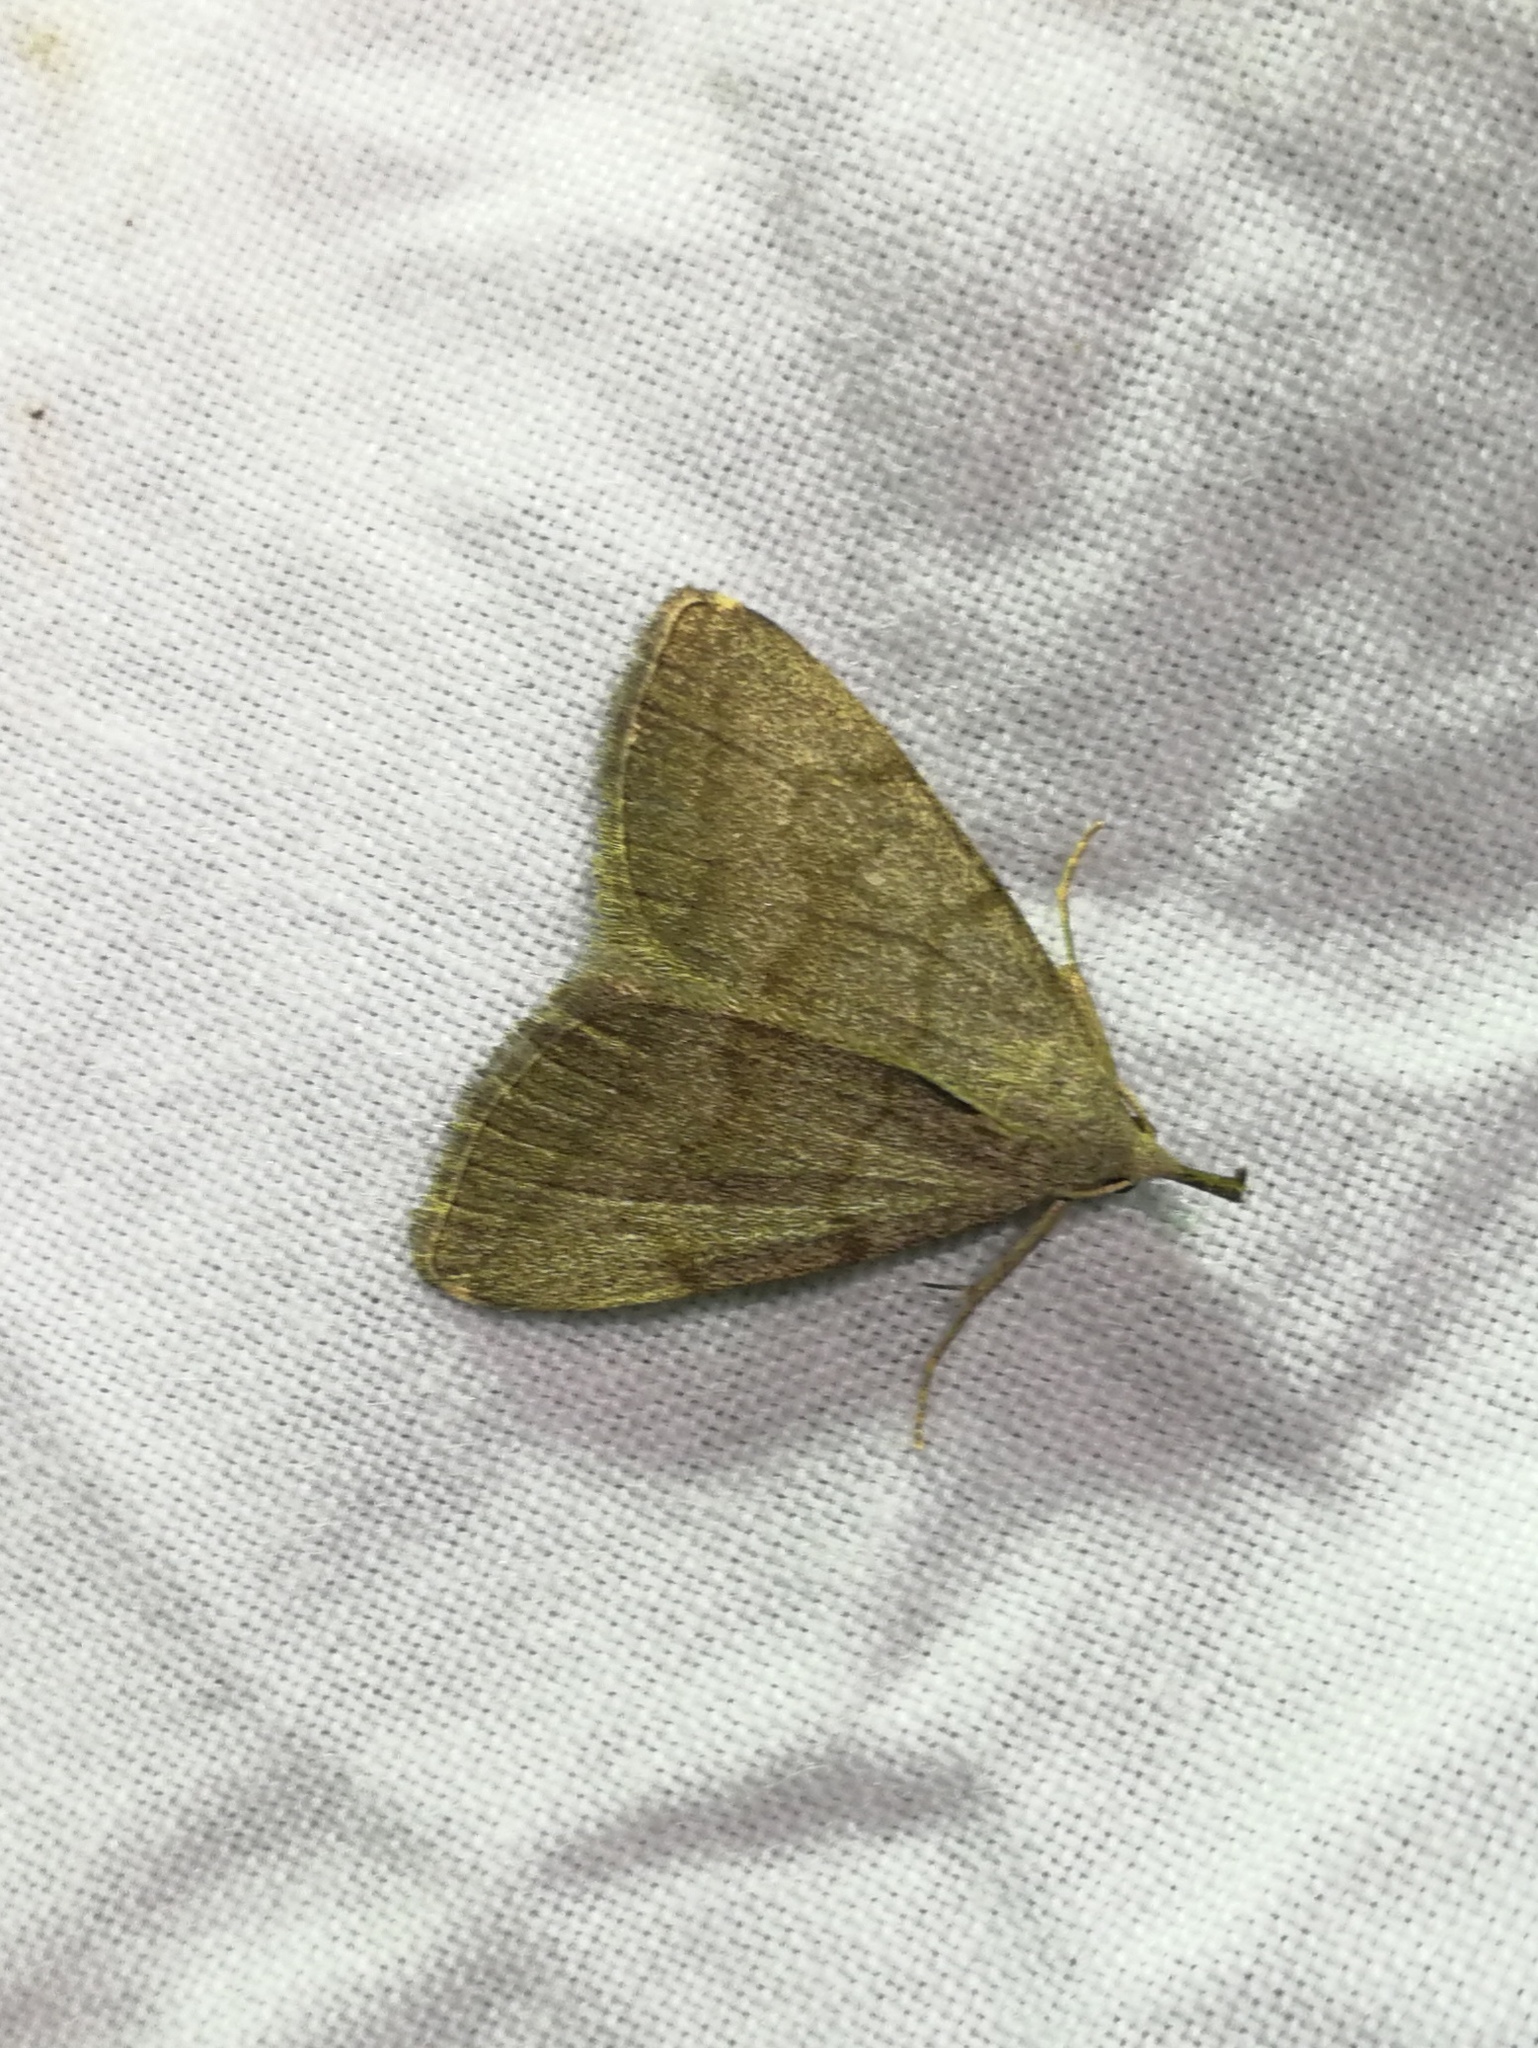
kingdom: Animalia
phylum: Arthropoda
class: Insecta
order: Lepidoptera
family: Erebidae
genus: Pechipogo
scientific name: Pechipogo strigilata
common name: Common fan-foot
